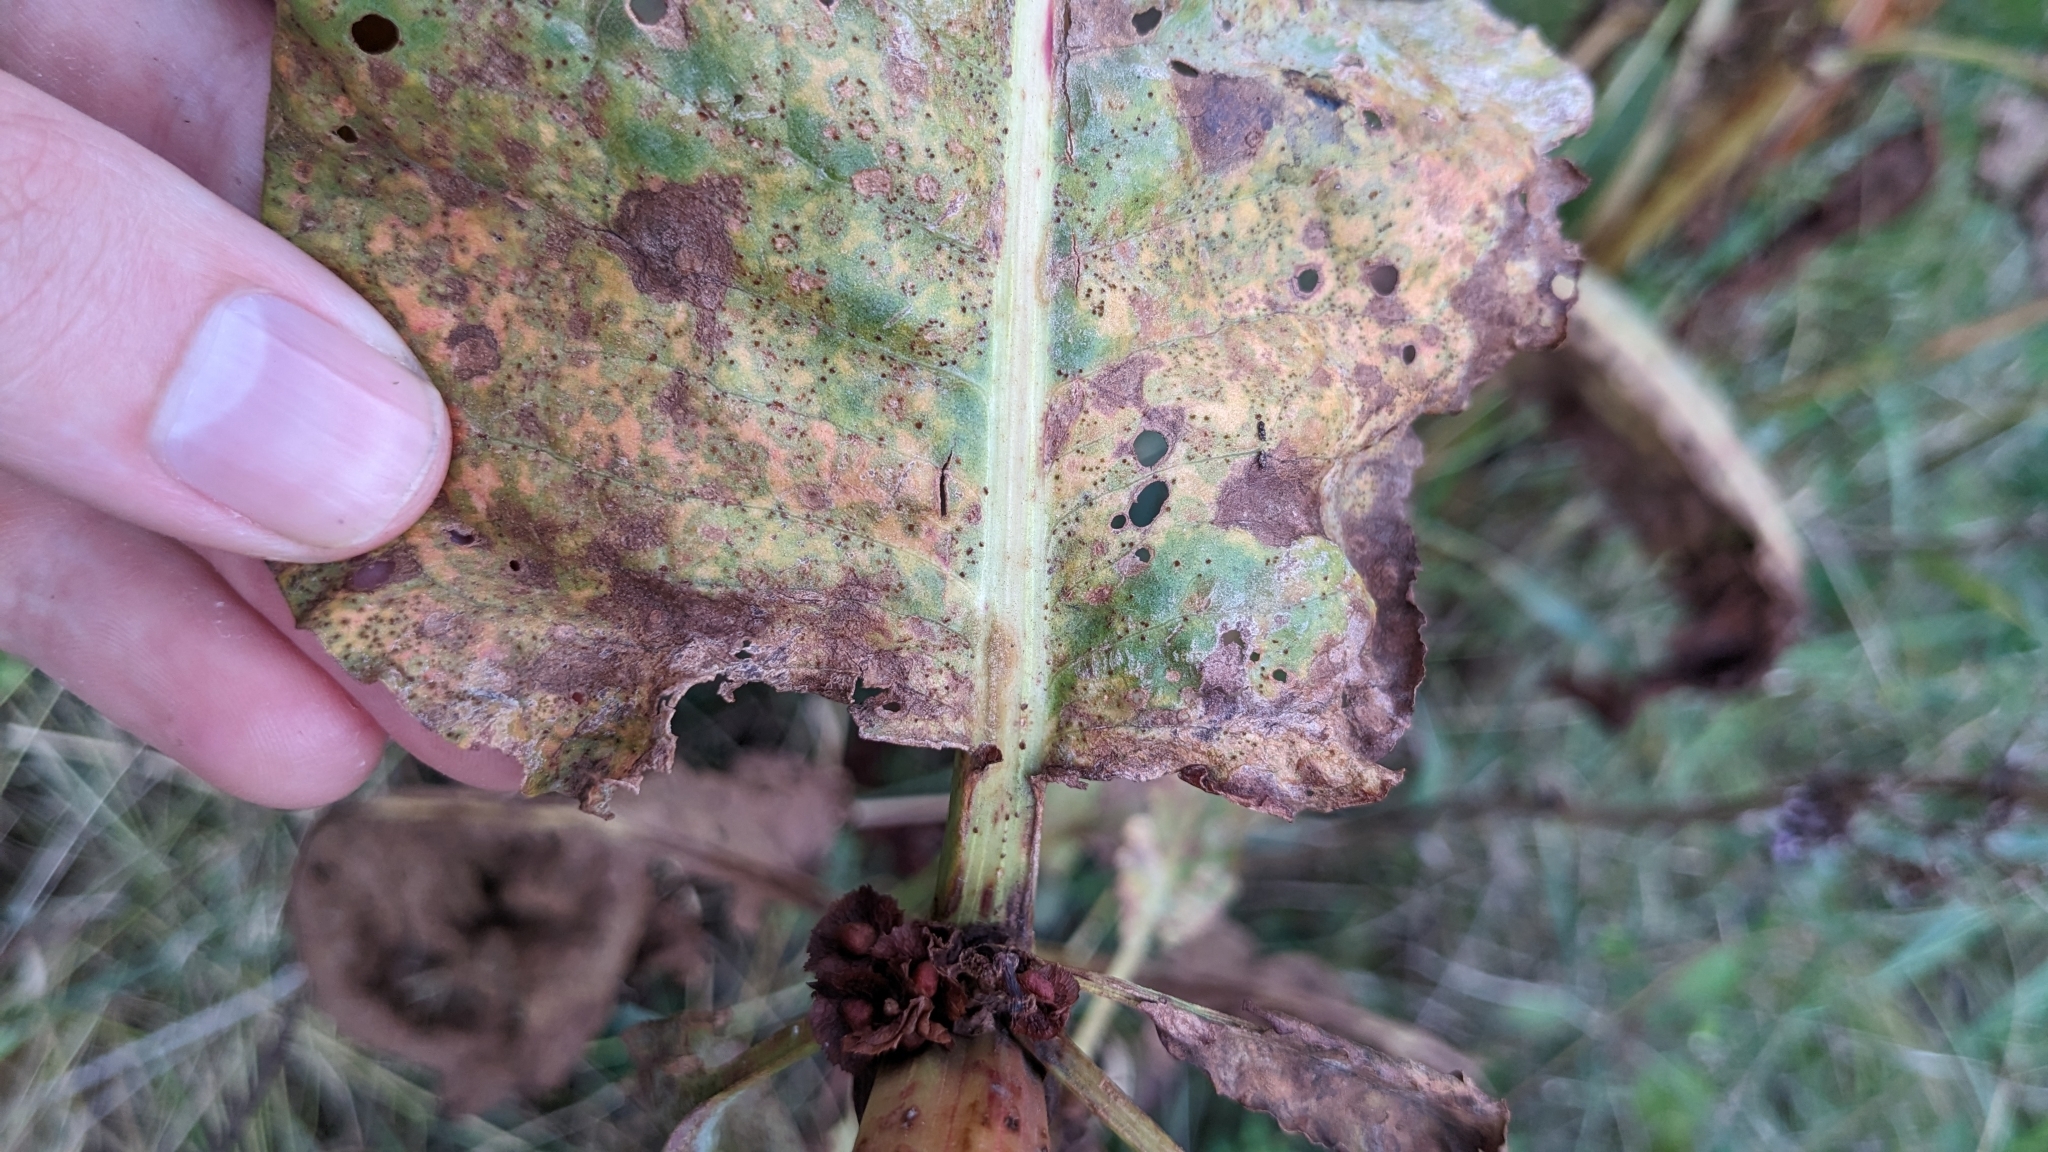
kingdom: Plantae
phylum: Tracheophyta
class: Magnoliopsida
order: Caryophyllales
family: Polygonaceae
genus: Rumex
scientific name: Rumex cristatus
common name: Greek dock
